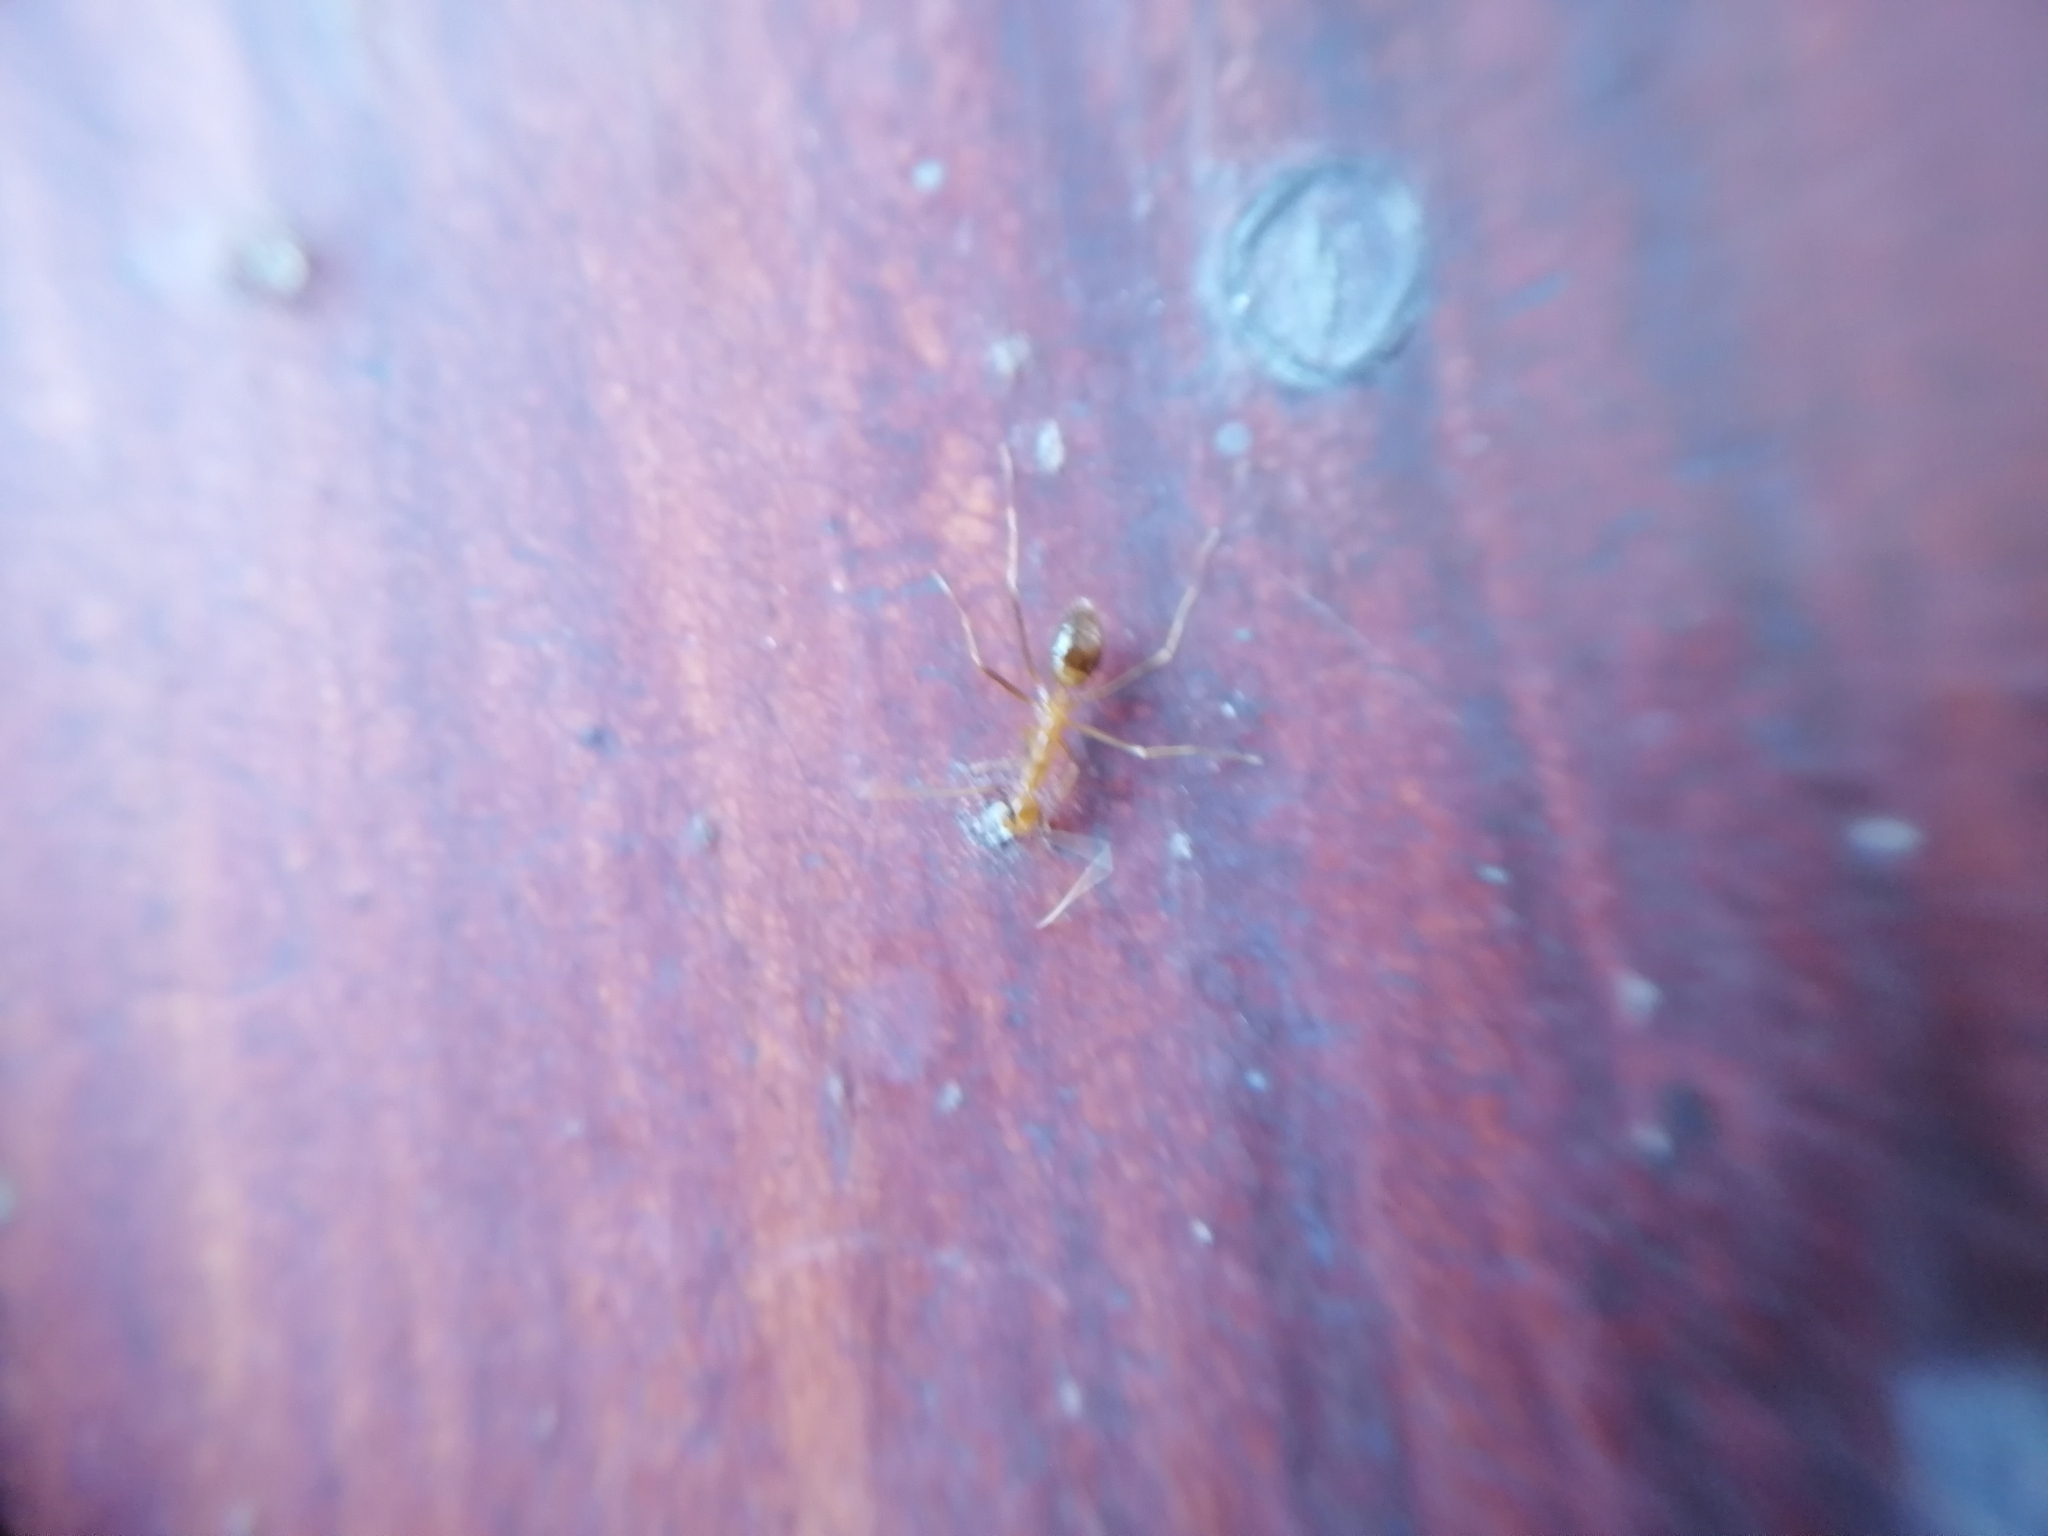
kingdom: Animalia
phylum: Arthropoda
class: Insecta
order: Hymenoptera
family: Formicidae
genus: Anoplolepis
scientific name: Anoplolepis gracilipes
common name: Ant
